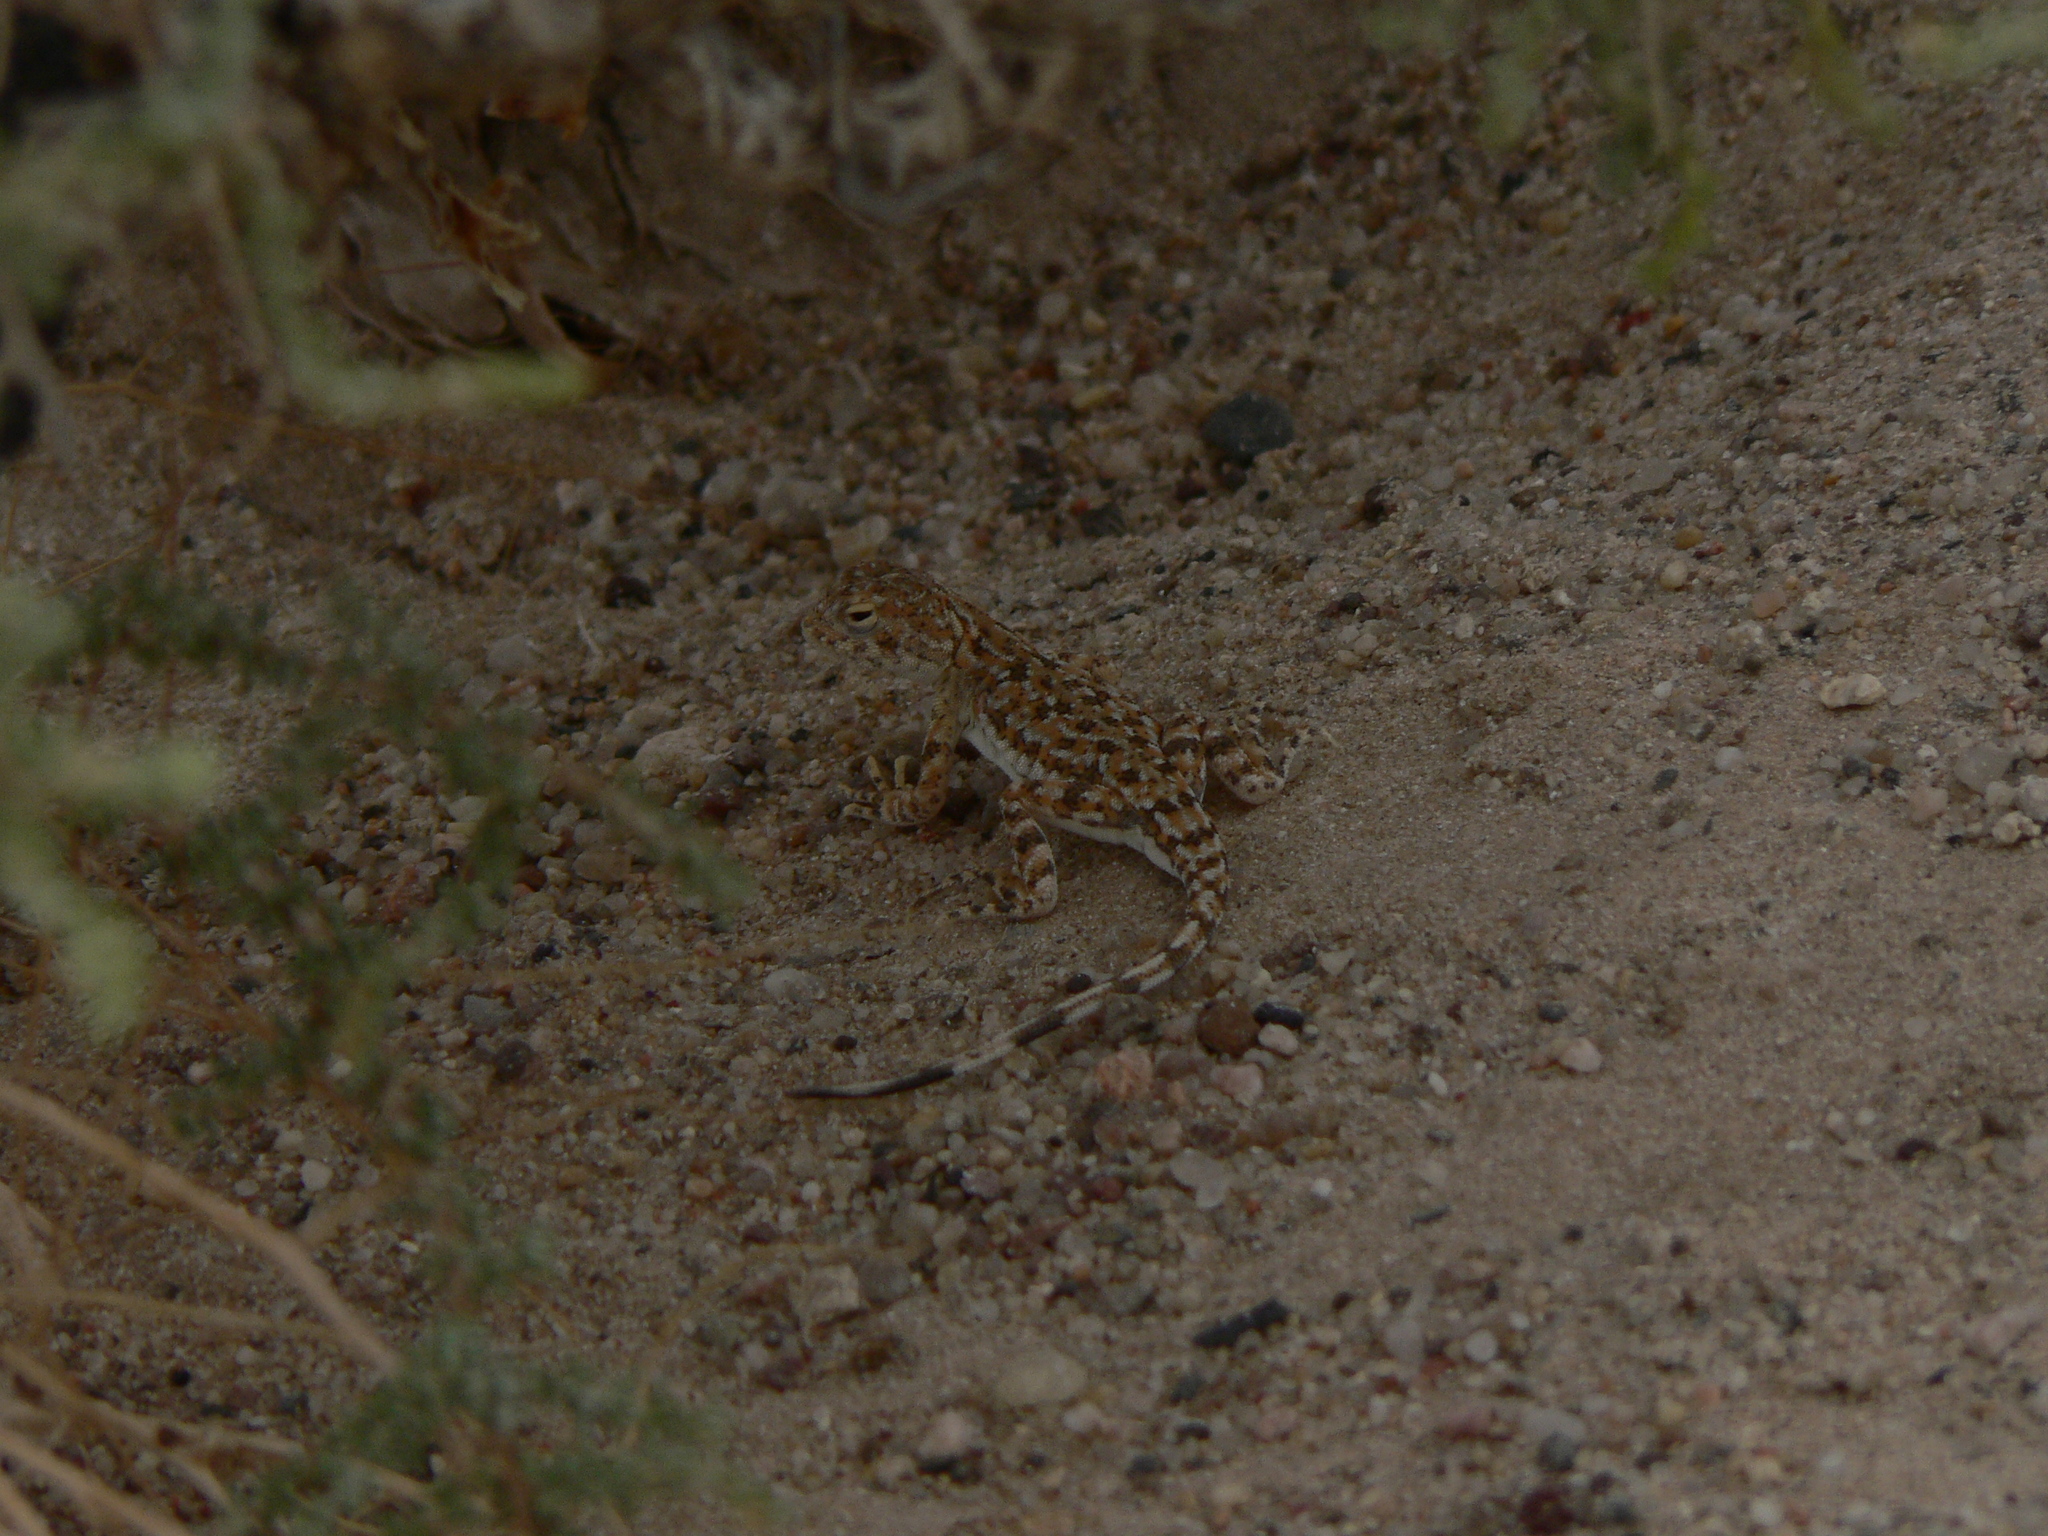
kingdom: Animalia
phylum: Chordata
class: Squamata
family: Agamidae
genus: Phrynocephalus
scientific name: Phrynocephalus versicolor
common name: Tuvan toad-headed agama
